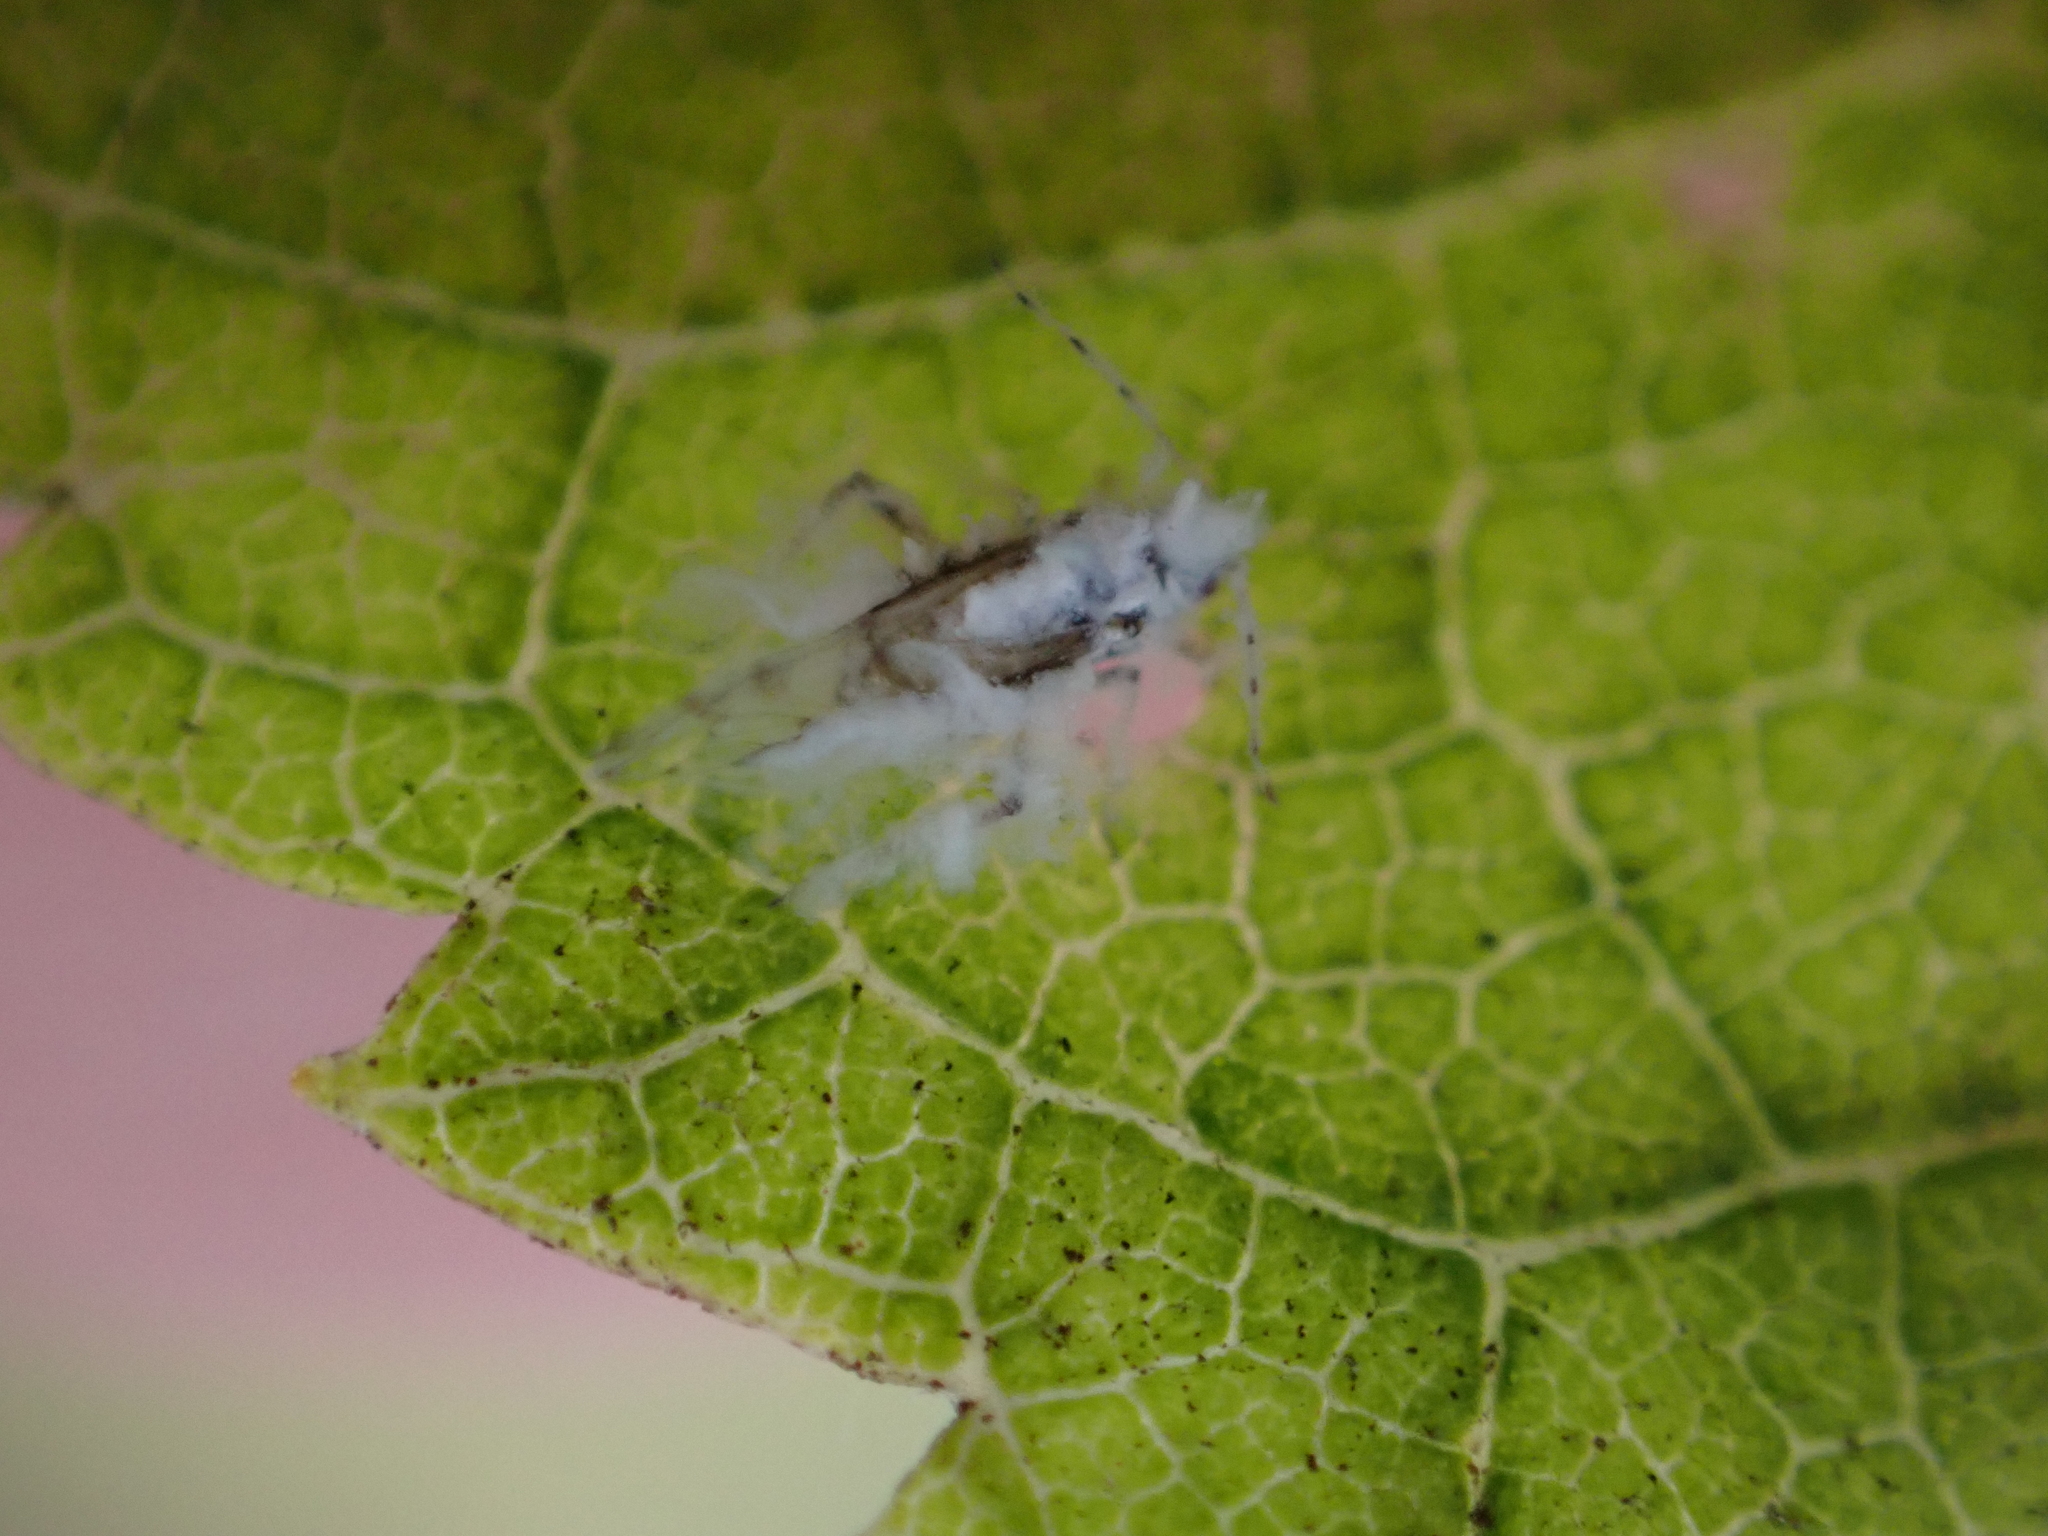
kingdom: Animalia
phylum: Arthropoda
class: Insecta
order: Hemiptera
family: Aphididae
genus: Shivaphis
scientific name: Shivaphis celti
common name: Asian wooly hackberry aphid
